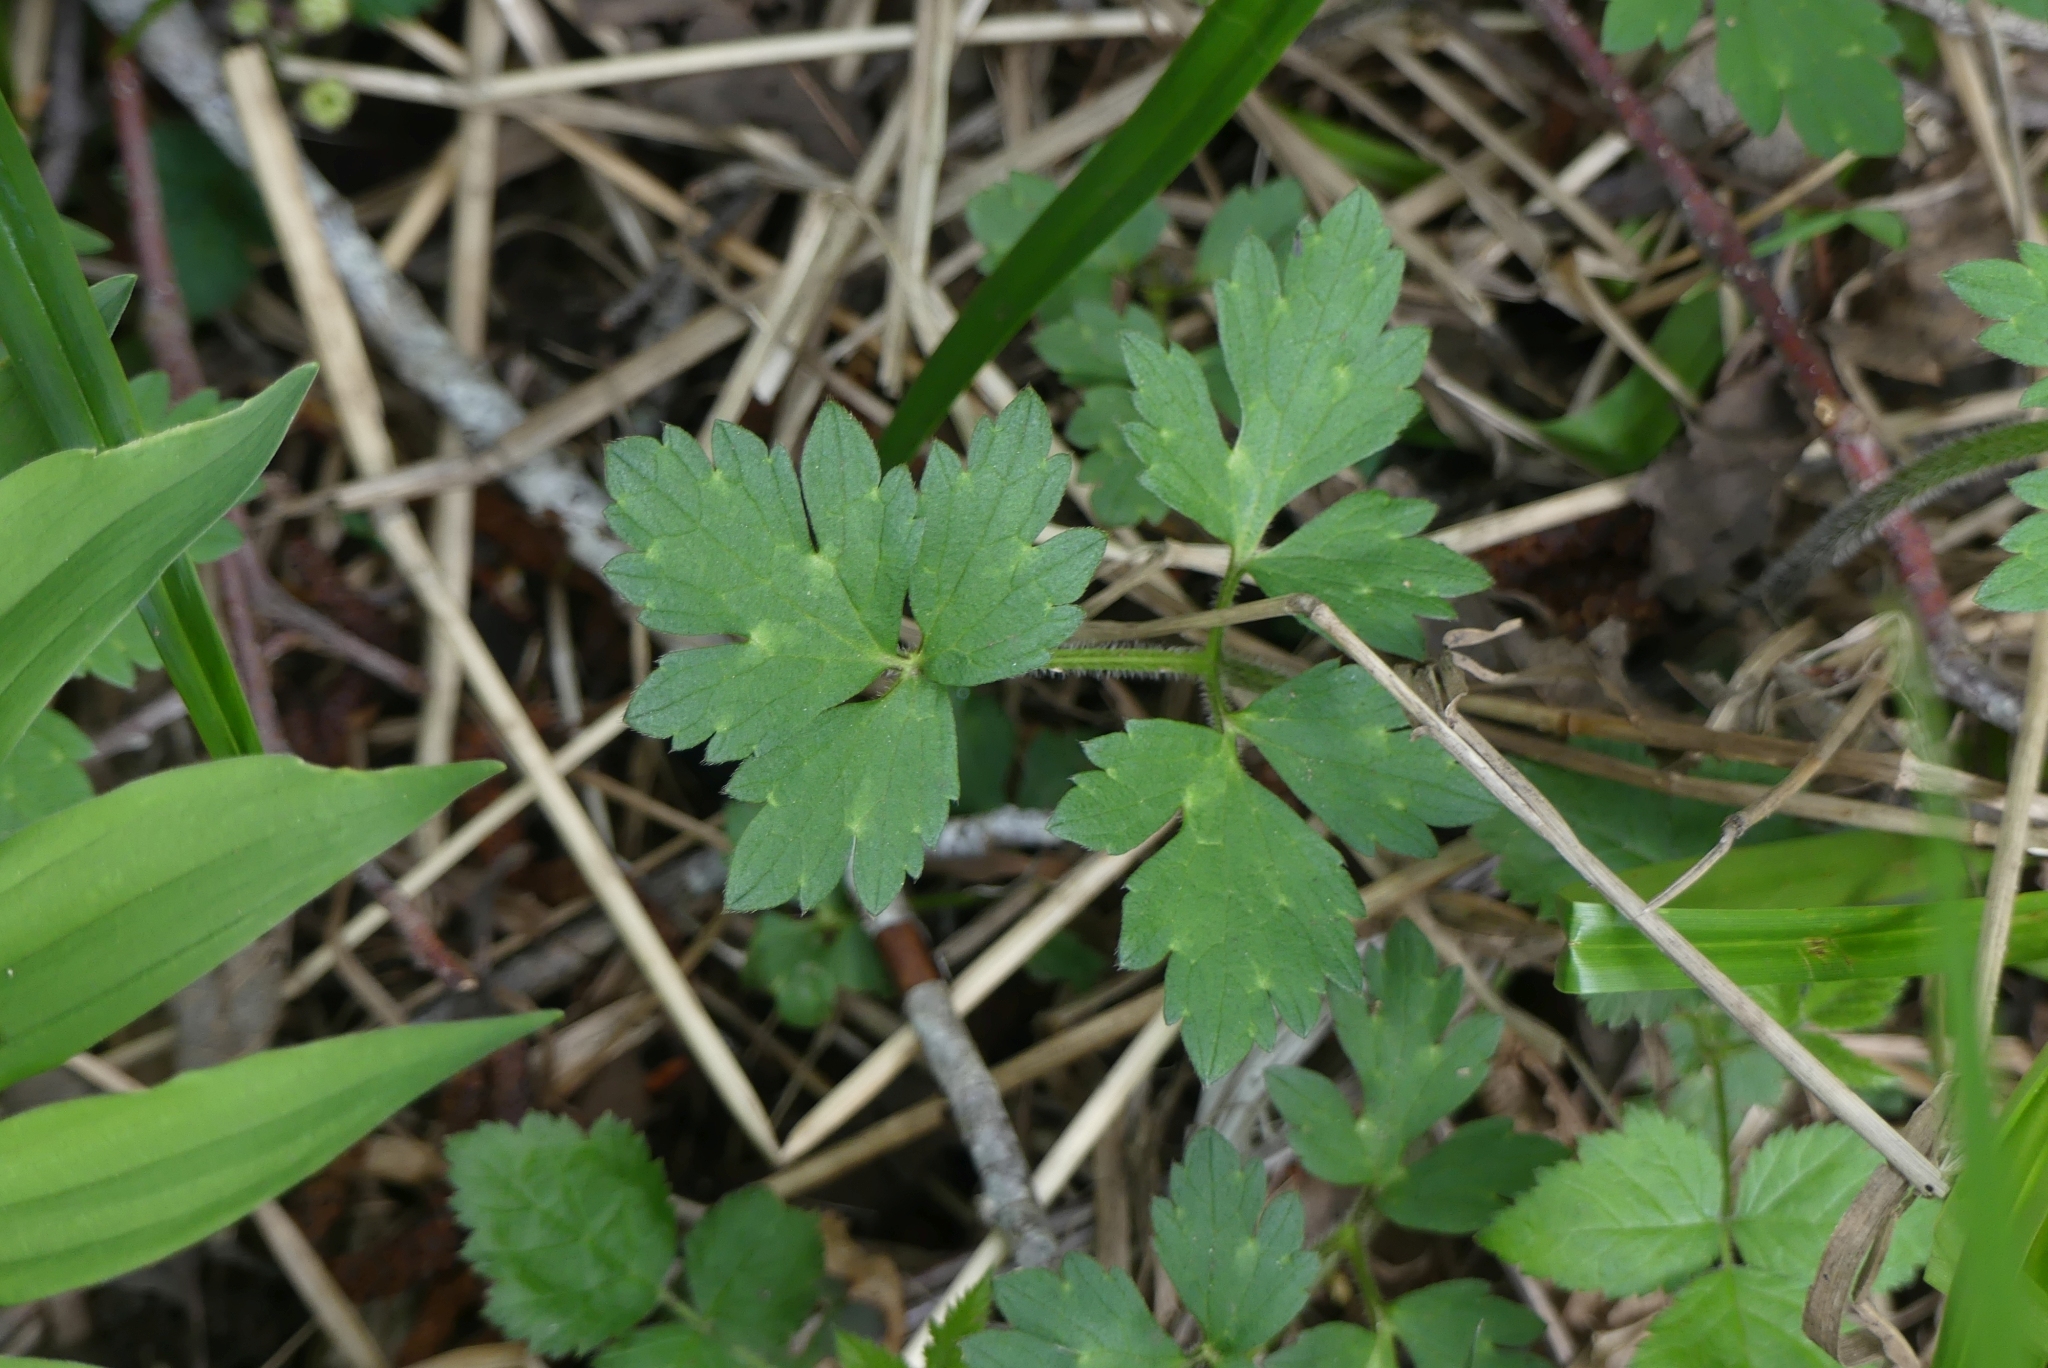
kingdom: Plantae
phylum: Tracheophyta
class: Magnoliopsida
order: Ranunculales
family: Ranunculaceae
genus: Ranunculus
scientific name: Ranunculus repens
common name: Creeping buttercup
